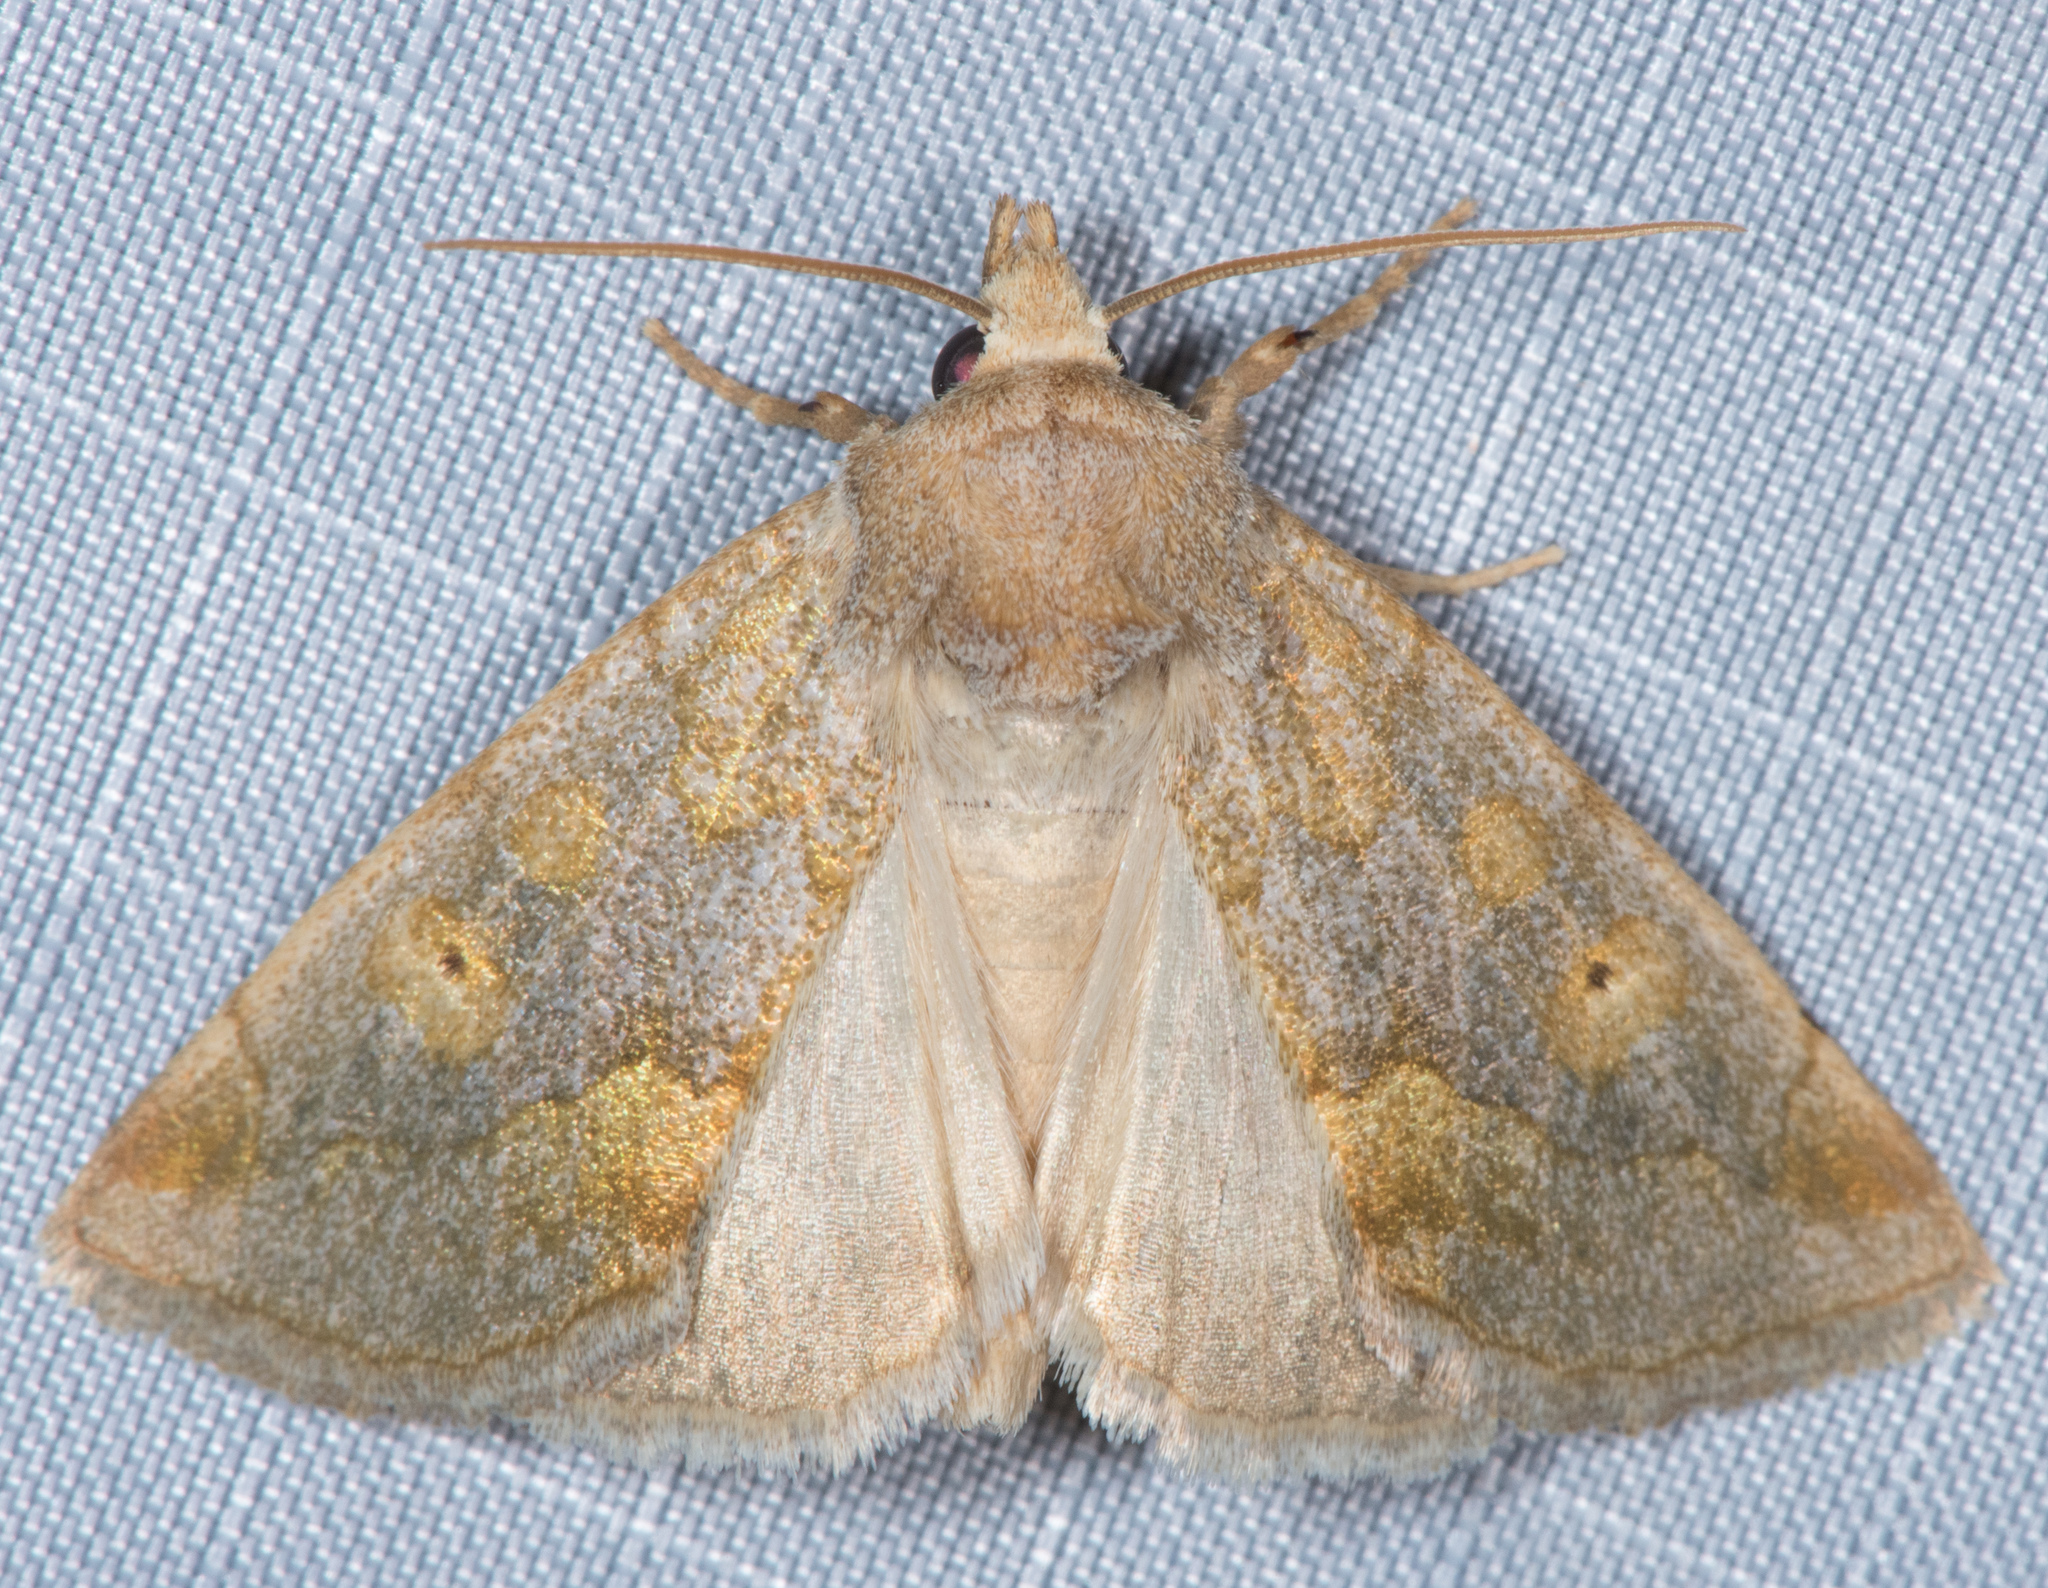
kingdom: Animalia
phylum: Arthropoda
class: Insecta
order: Lepidoptera
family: Noctuidae
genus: Basilodes
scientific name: Basilodes chrysopis
